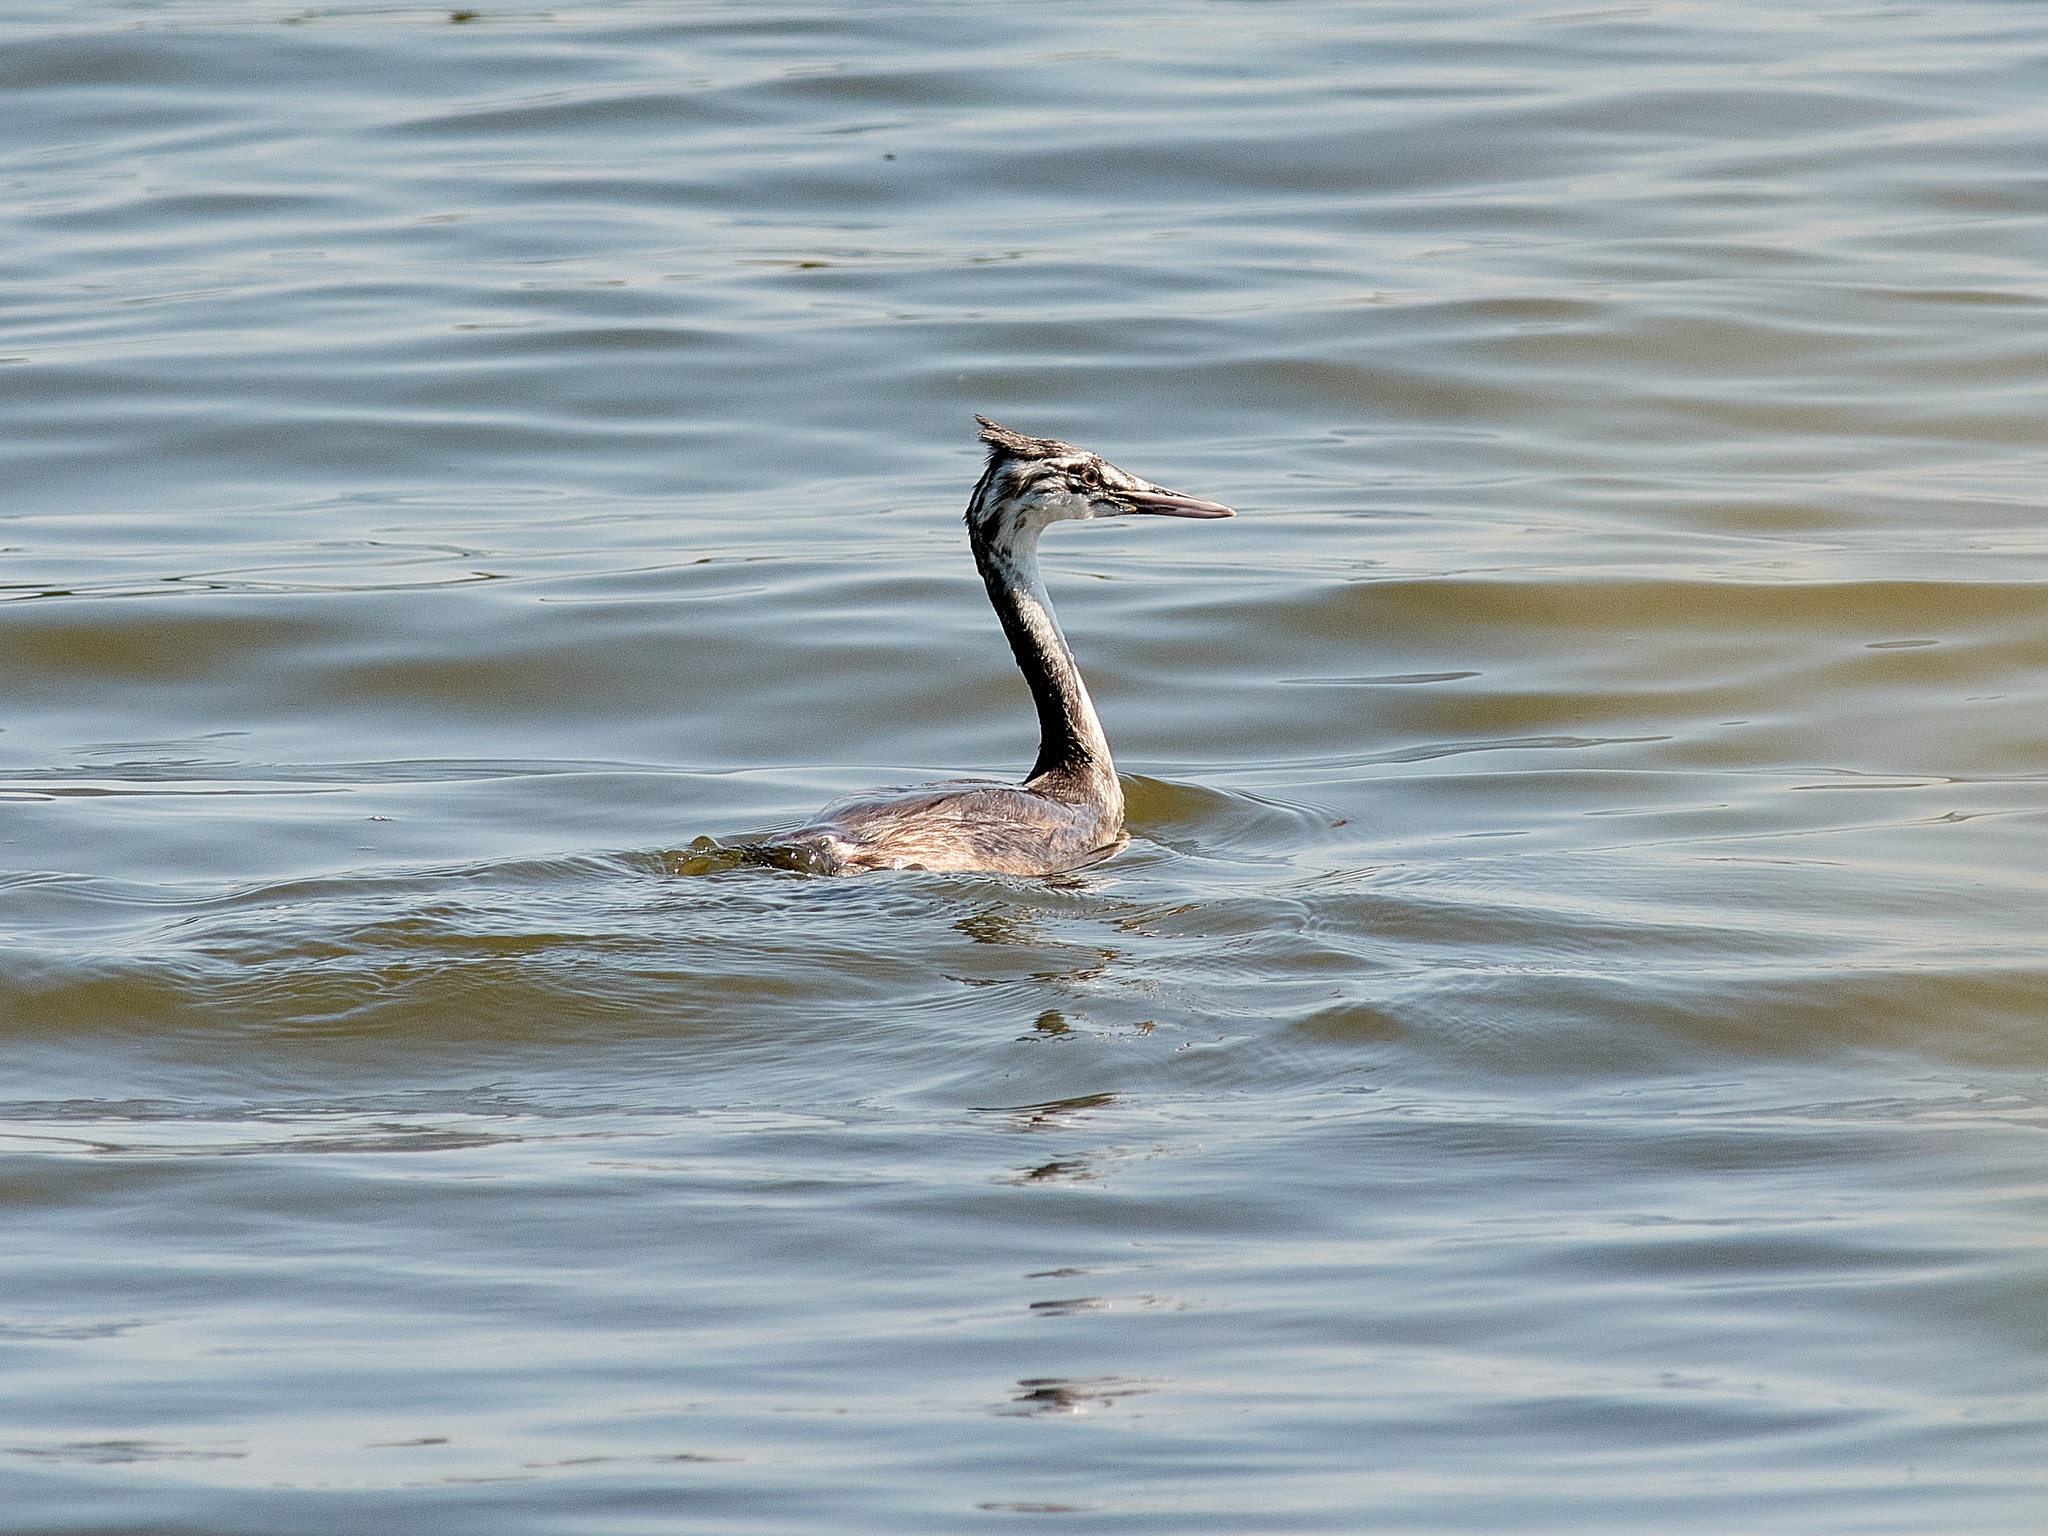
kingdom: Animalia
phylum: Chordata
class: Aves
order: Podicipediformes
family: Podicipedidae
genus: Podiceps
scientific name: Podiceps cristatus
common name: Great crested grebe
